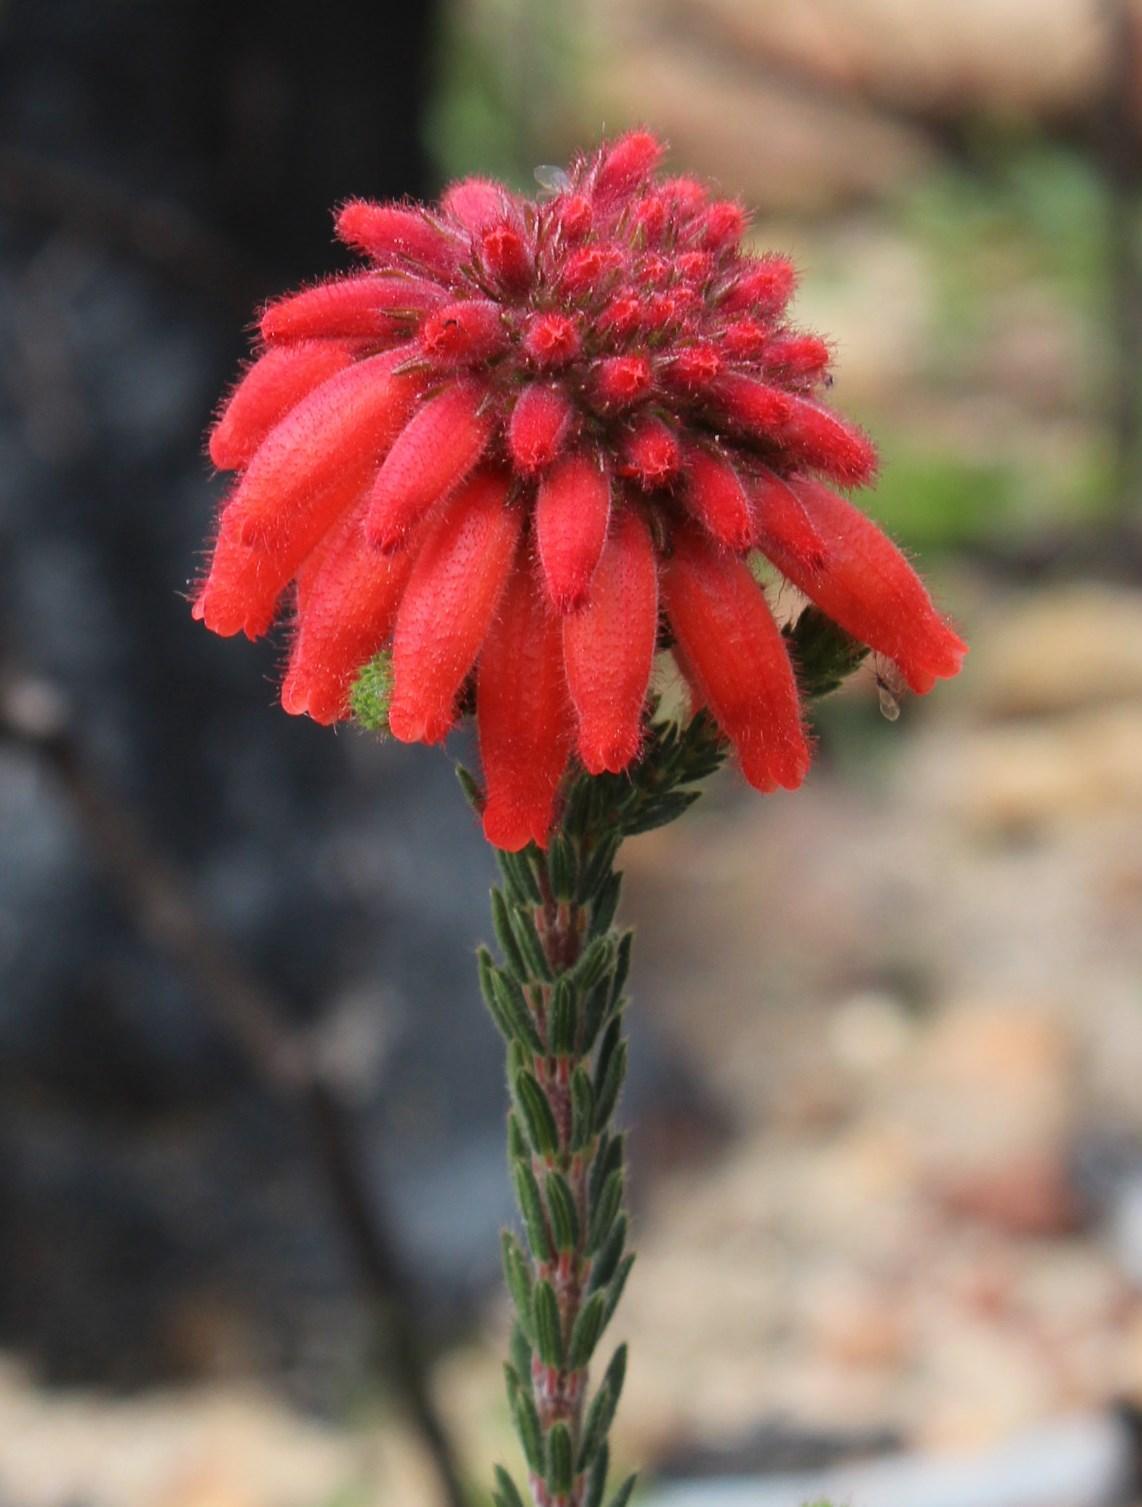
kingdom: Plantae
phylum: Tracheophyta
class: Magnoliopsida
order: Ericales
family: Ericaceae
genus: Erica
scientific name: Erica cerinthoides
